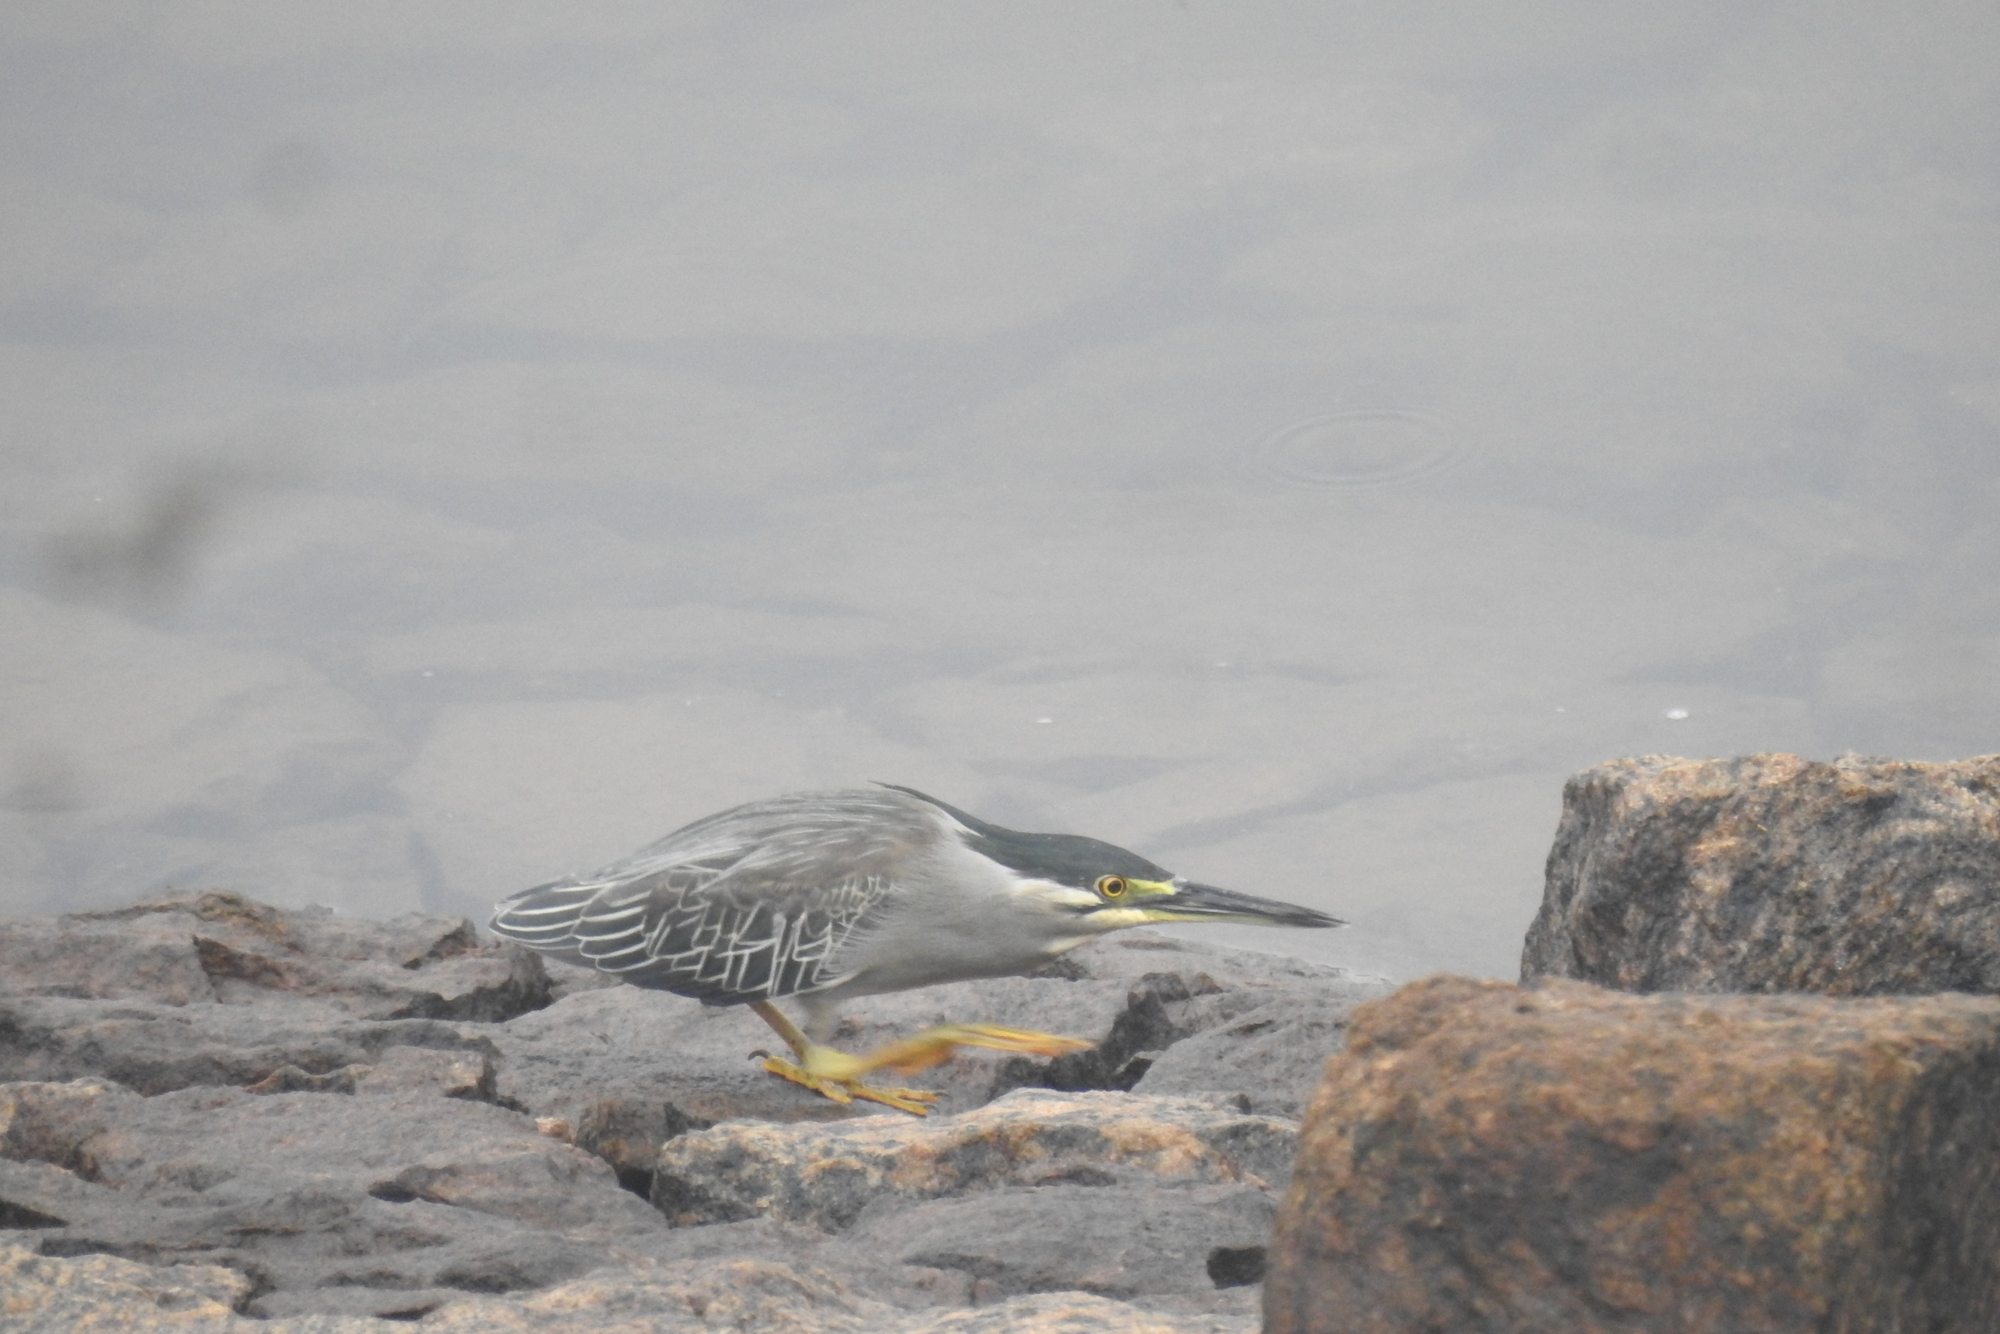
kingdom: Animalia
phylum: Chordata
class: Aves
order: Pelecaniformes
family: Ardeidae
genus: Butorides
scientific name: Butorides striata
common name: Striated heron
